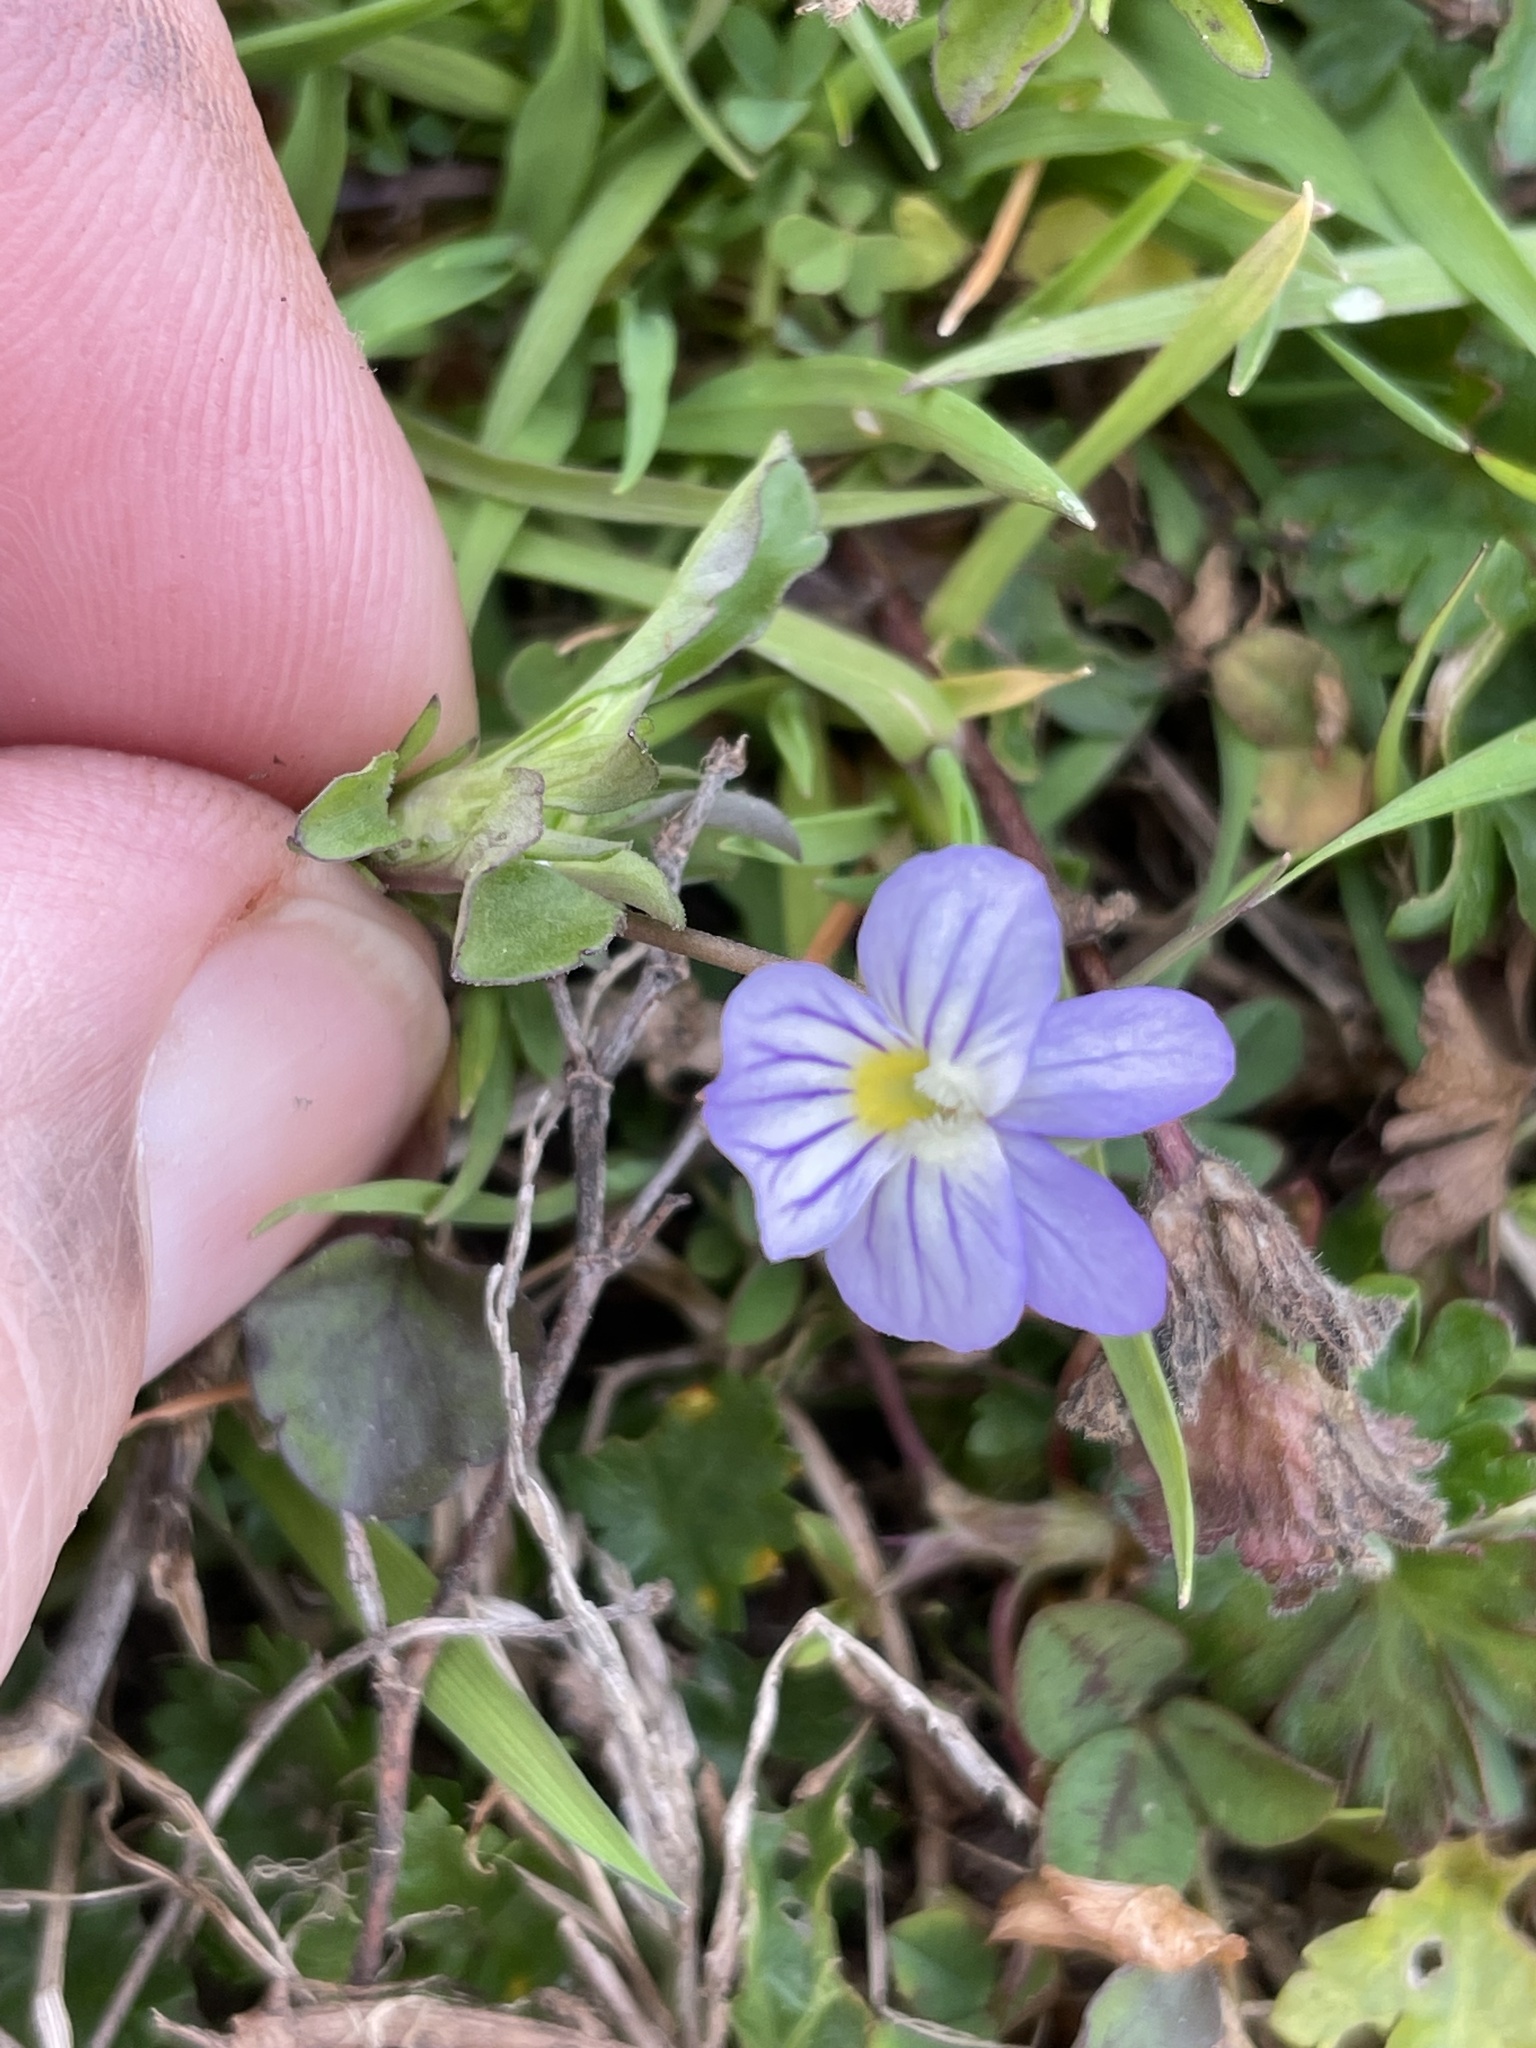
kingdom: Plantae
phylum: Tracheophyta
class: Magnoliopsida
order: Malpighiales
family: Violaceae
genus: Viola
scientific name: Viola rafinesquei
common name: American field pansy
